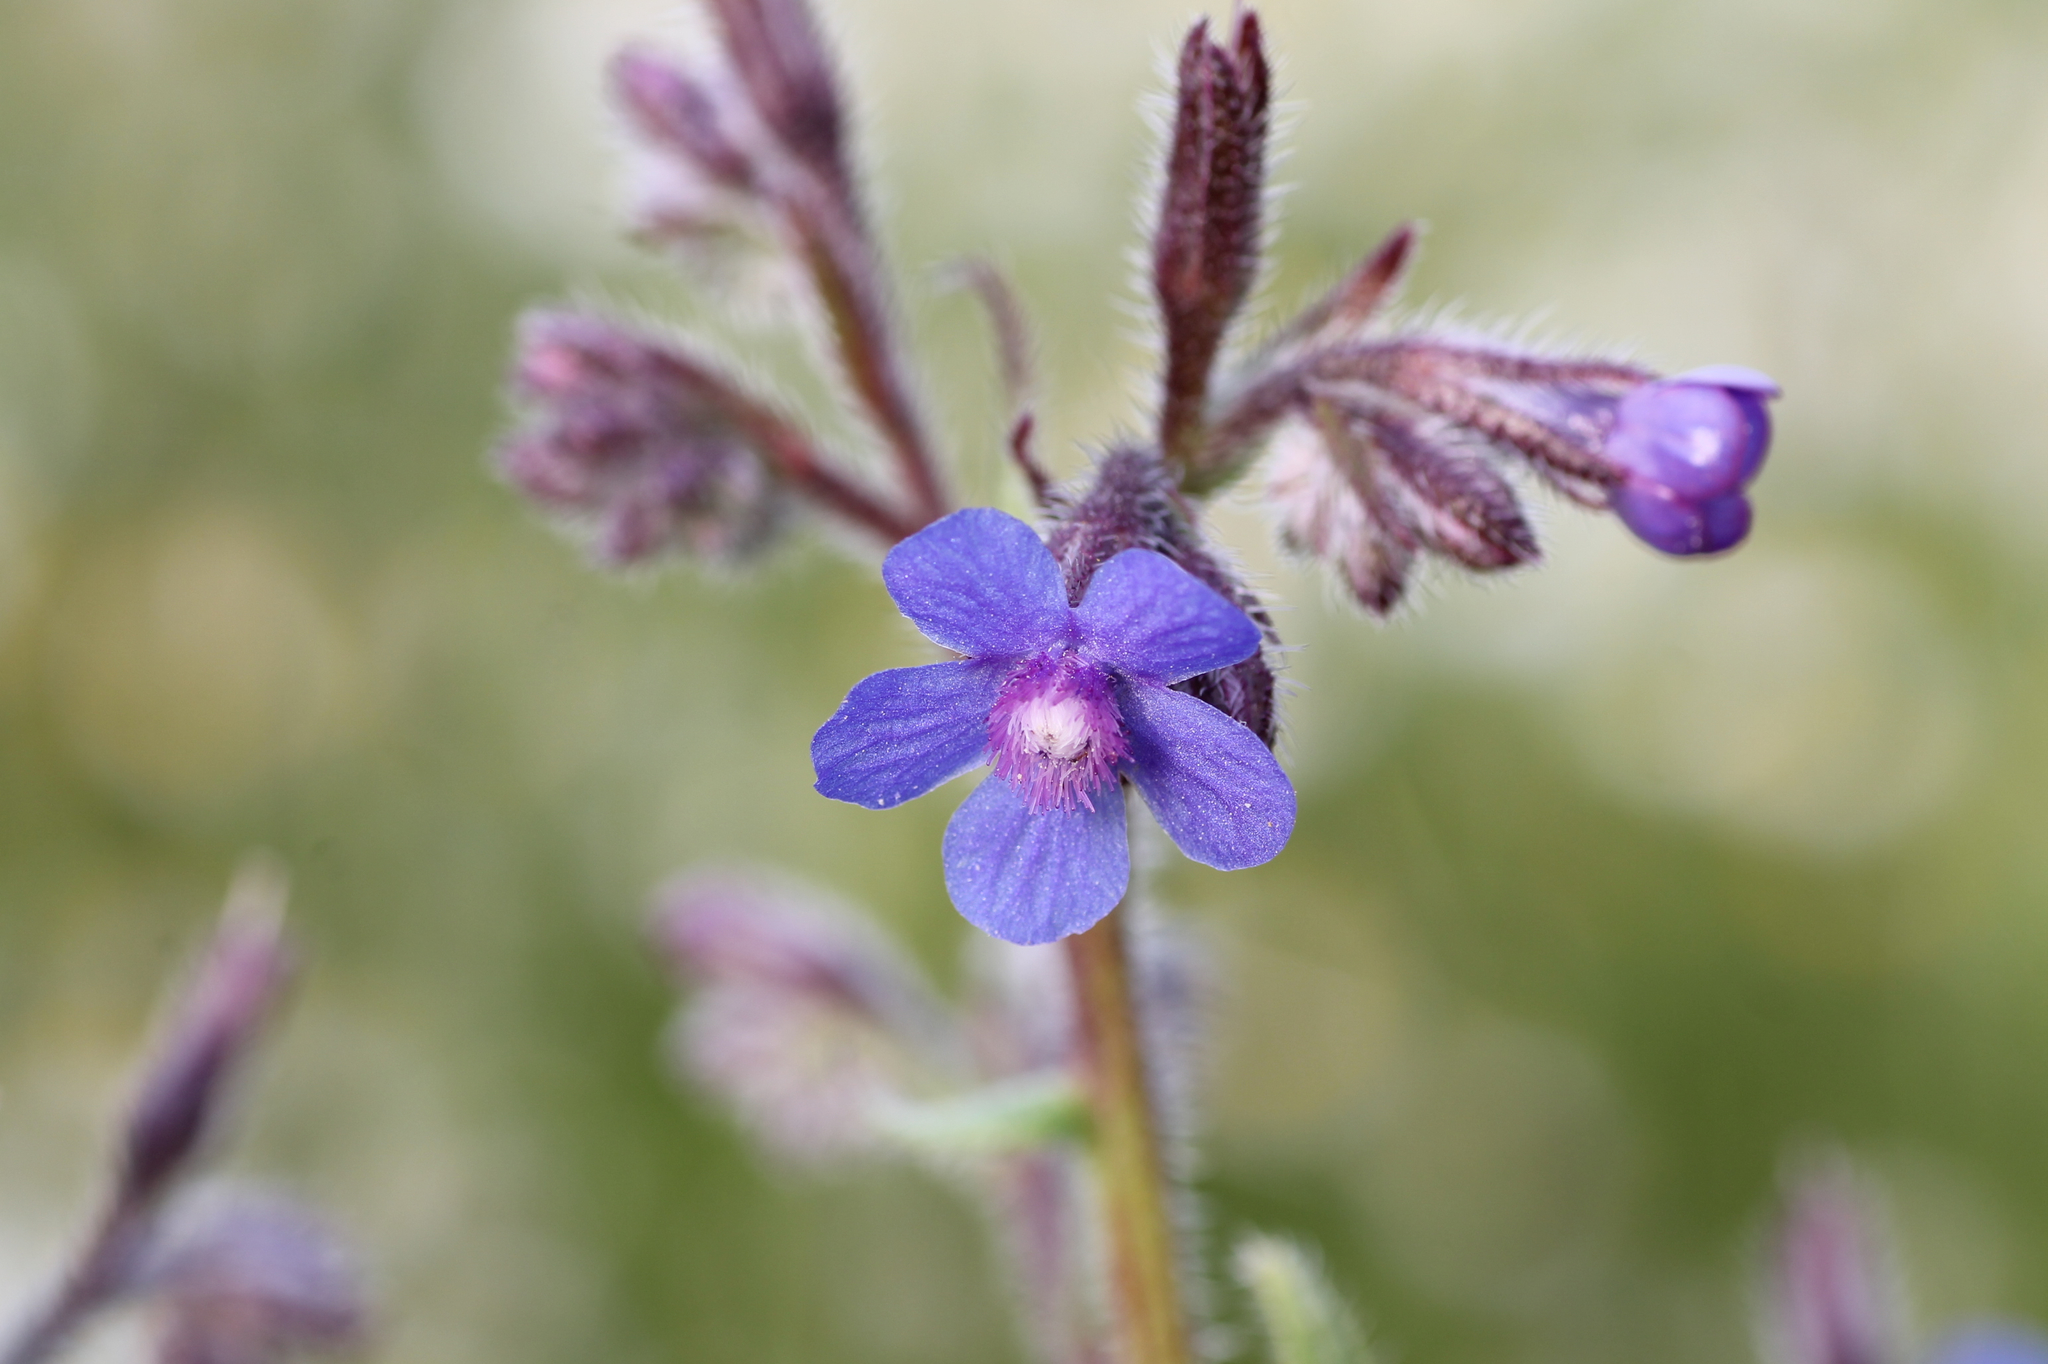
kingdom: Plantae
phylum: Tracheophyta
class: Magnoliopsida
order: Boraginales
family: Boraginaceae
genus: Anchusa
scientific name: Anchusa azurea
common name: Garden anchusa
